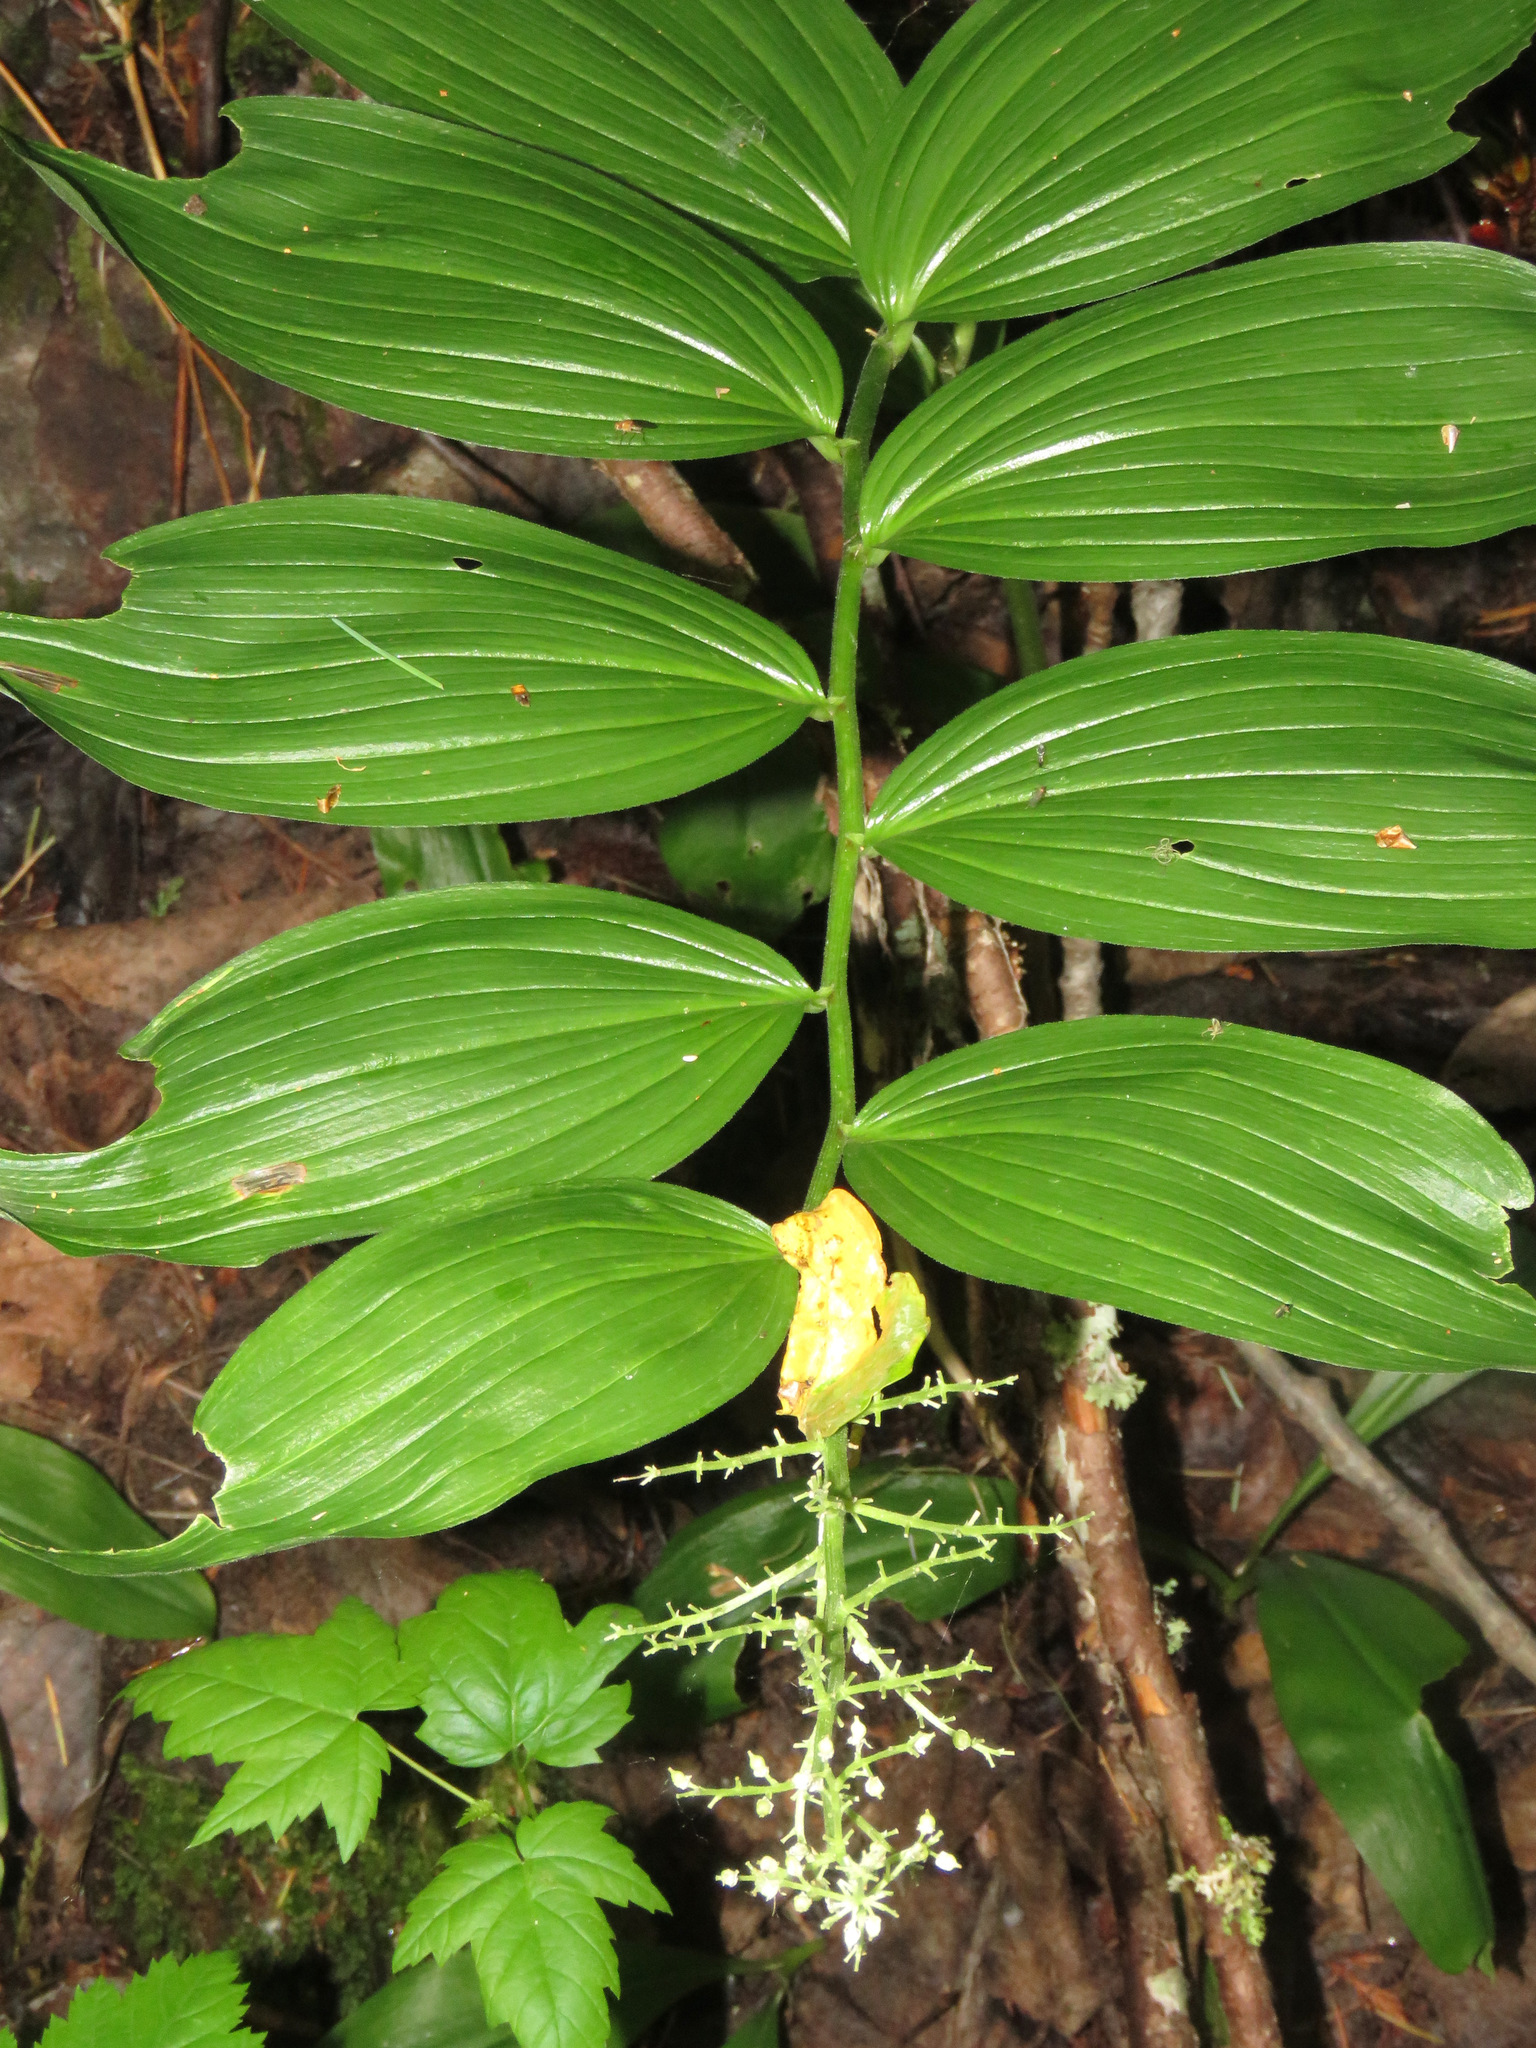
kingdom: Plantae
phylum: Tracheophyta
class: Liliopsida
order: Asparagales
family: Asparagaceae
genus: Maianthemum
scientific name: Maianthemum racemosum
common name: False spikenard
